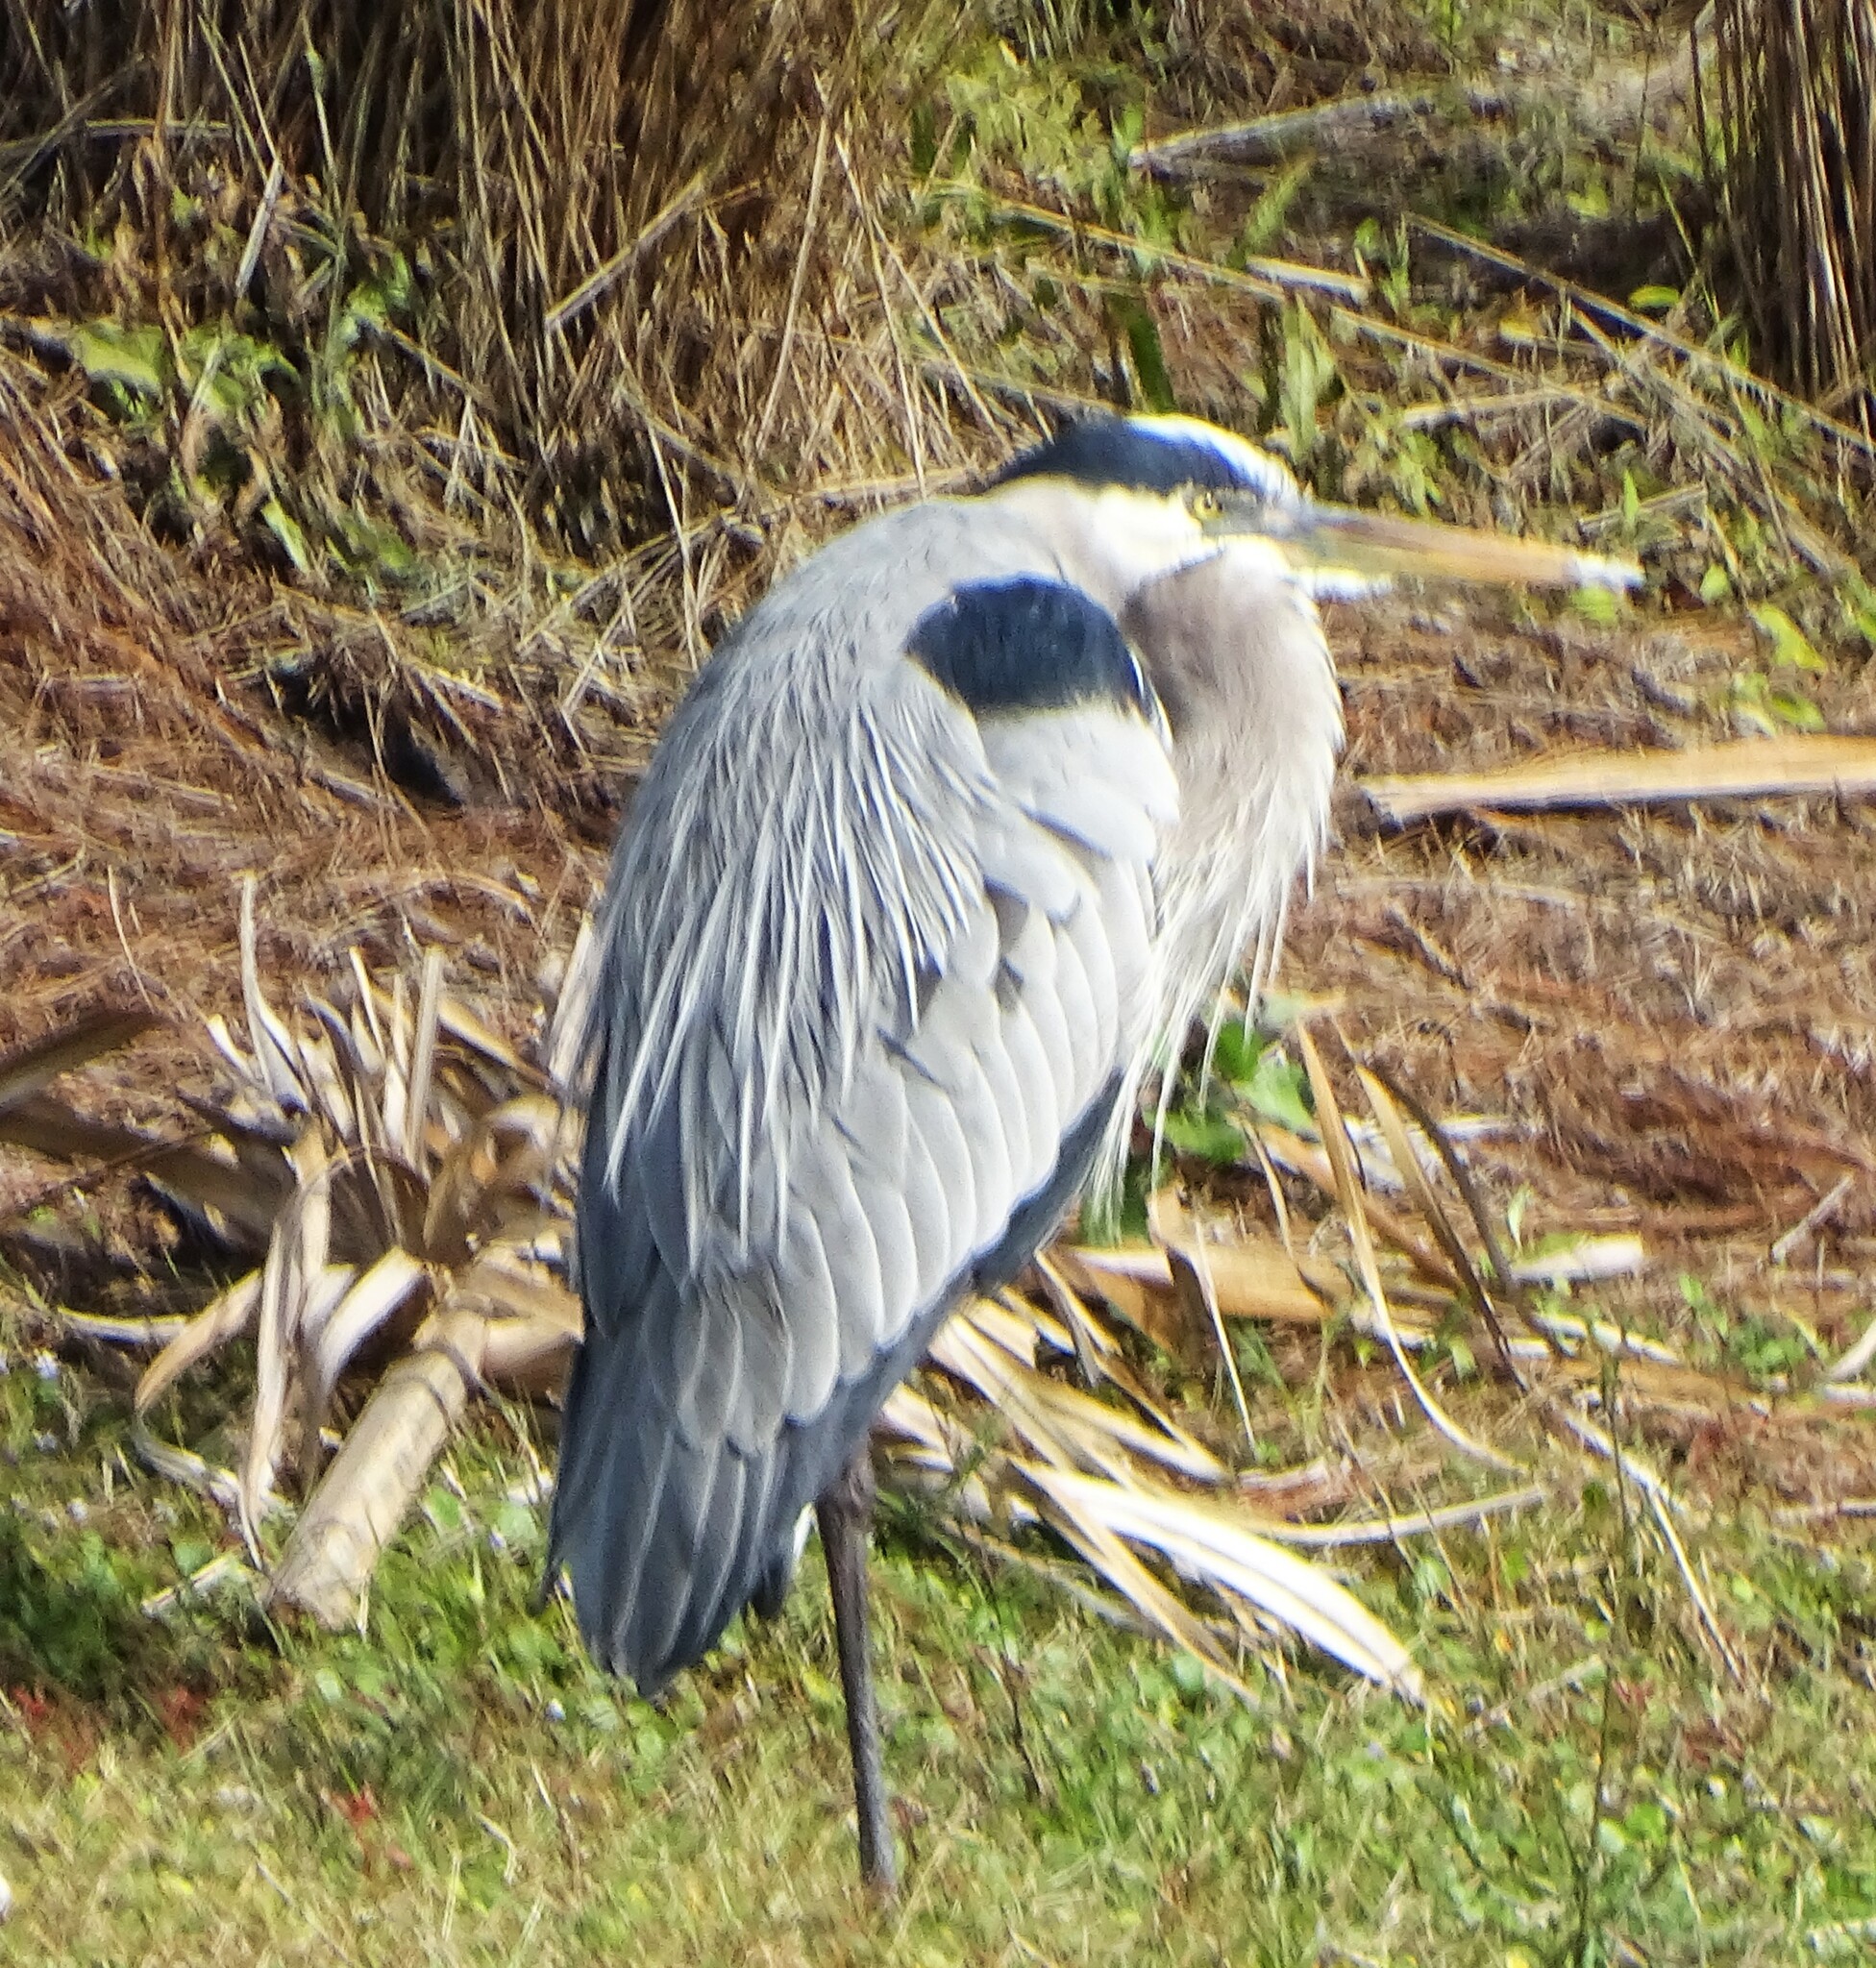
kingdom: Animalia
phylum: Chordata
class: Aves
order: Pelecaniformes
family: Ardeidae
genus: Ardea
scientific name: Ardea herodias
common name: Great blue heron
